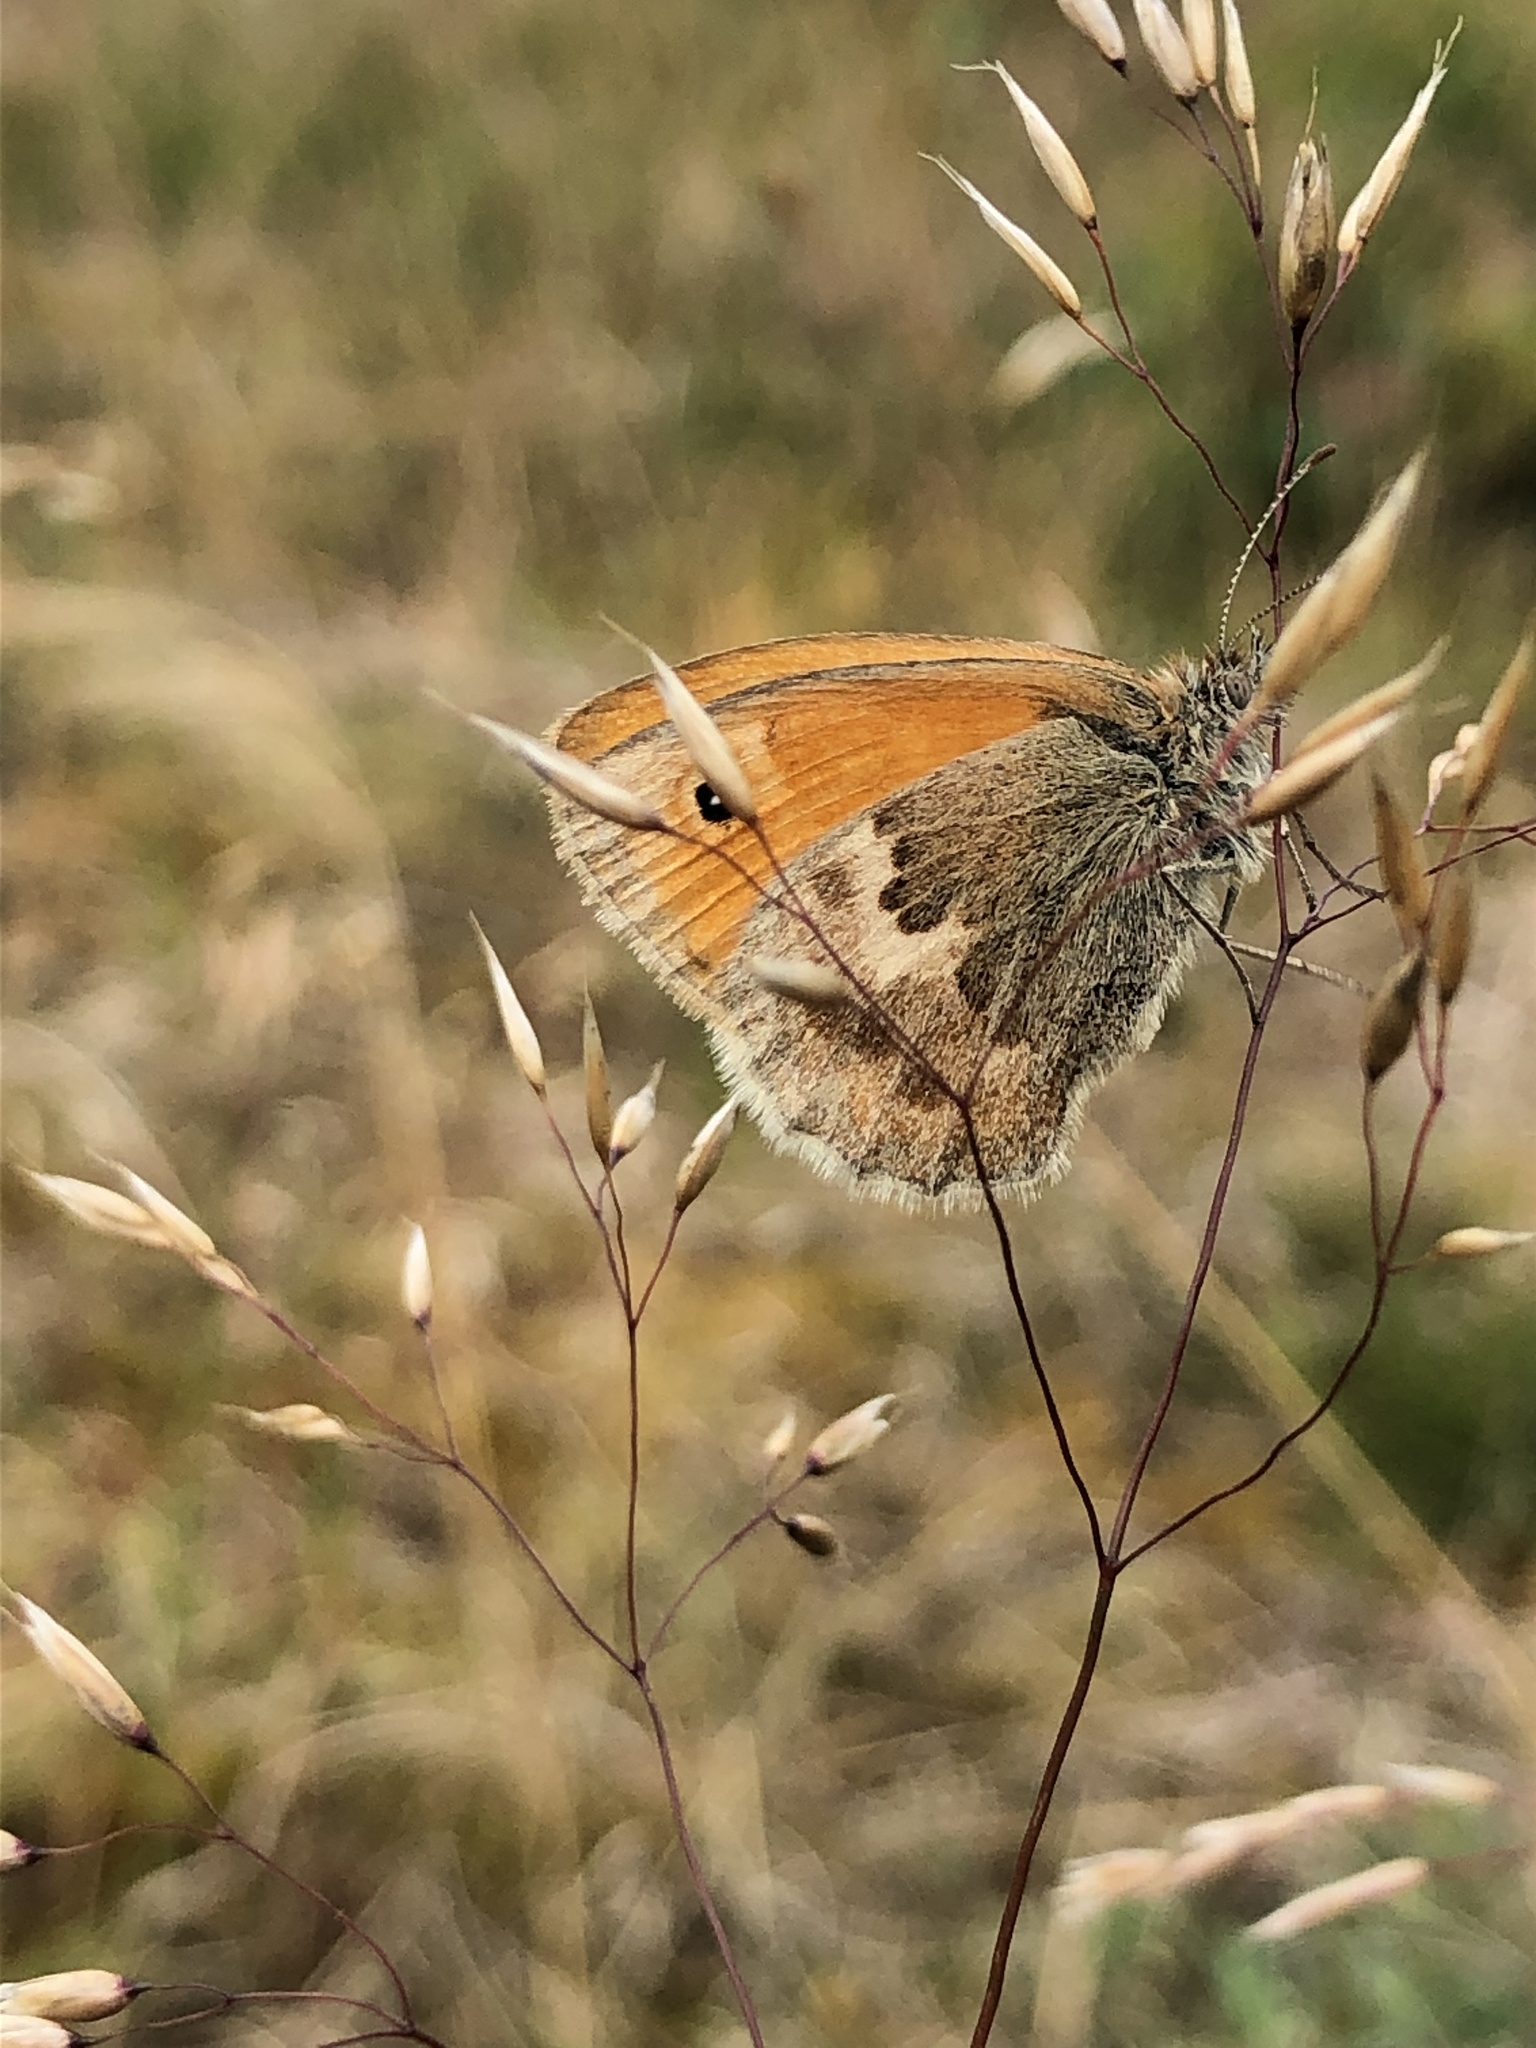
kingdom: Animalia
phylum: Arthropoda
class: Insecta
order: Lepidoptera
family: Nymphalidae
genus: Coenonympha
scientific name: Coenonympha pamphilus
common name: Small heath
